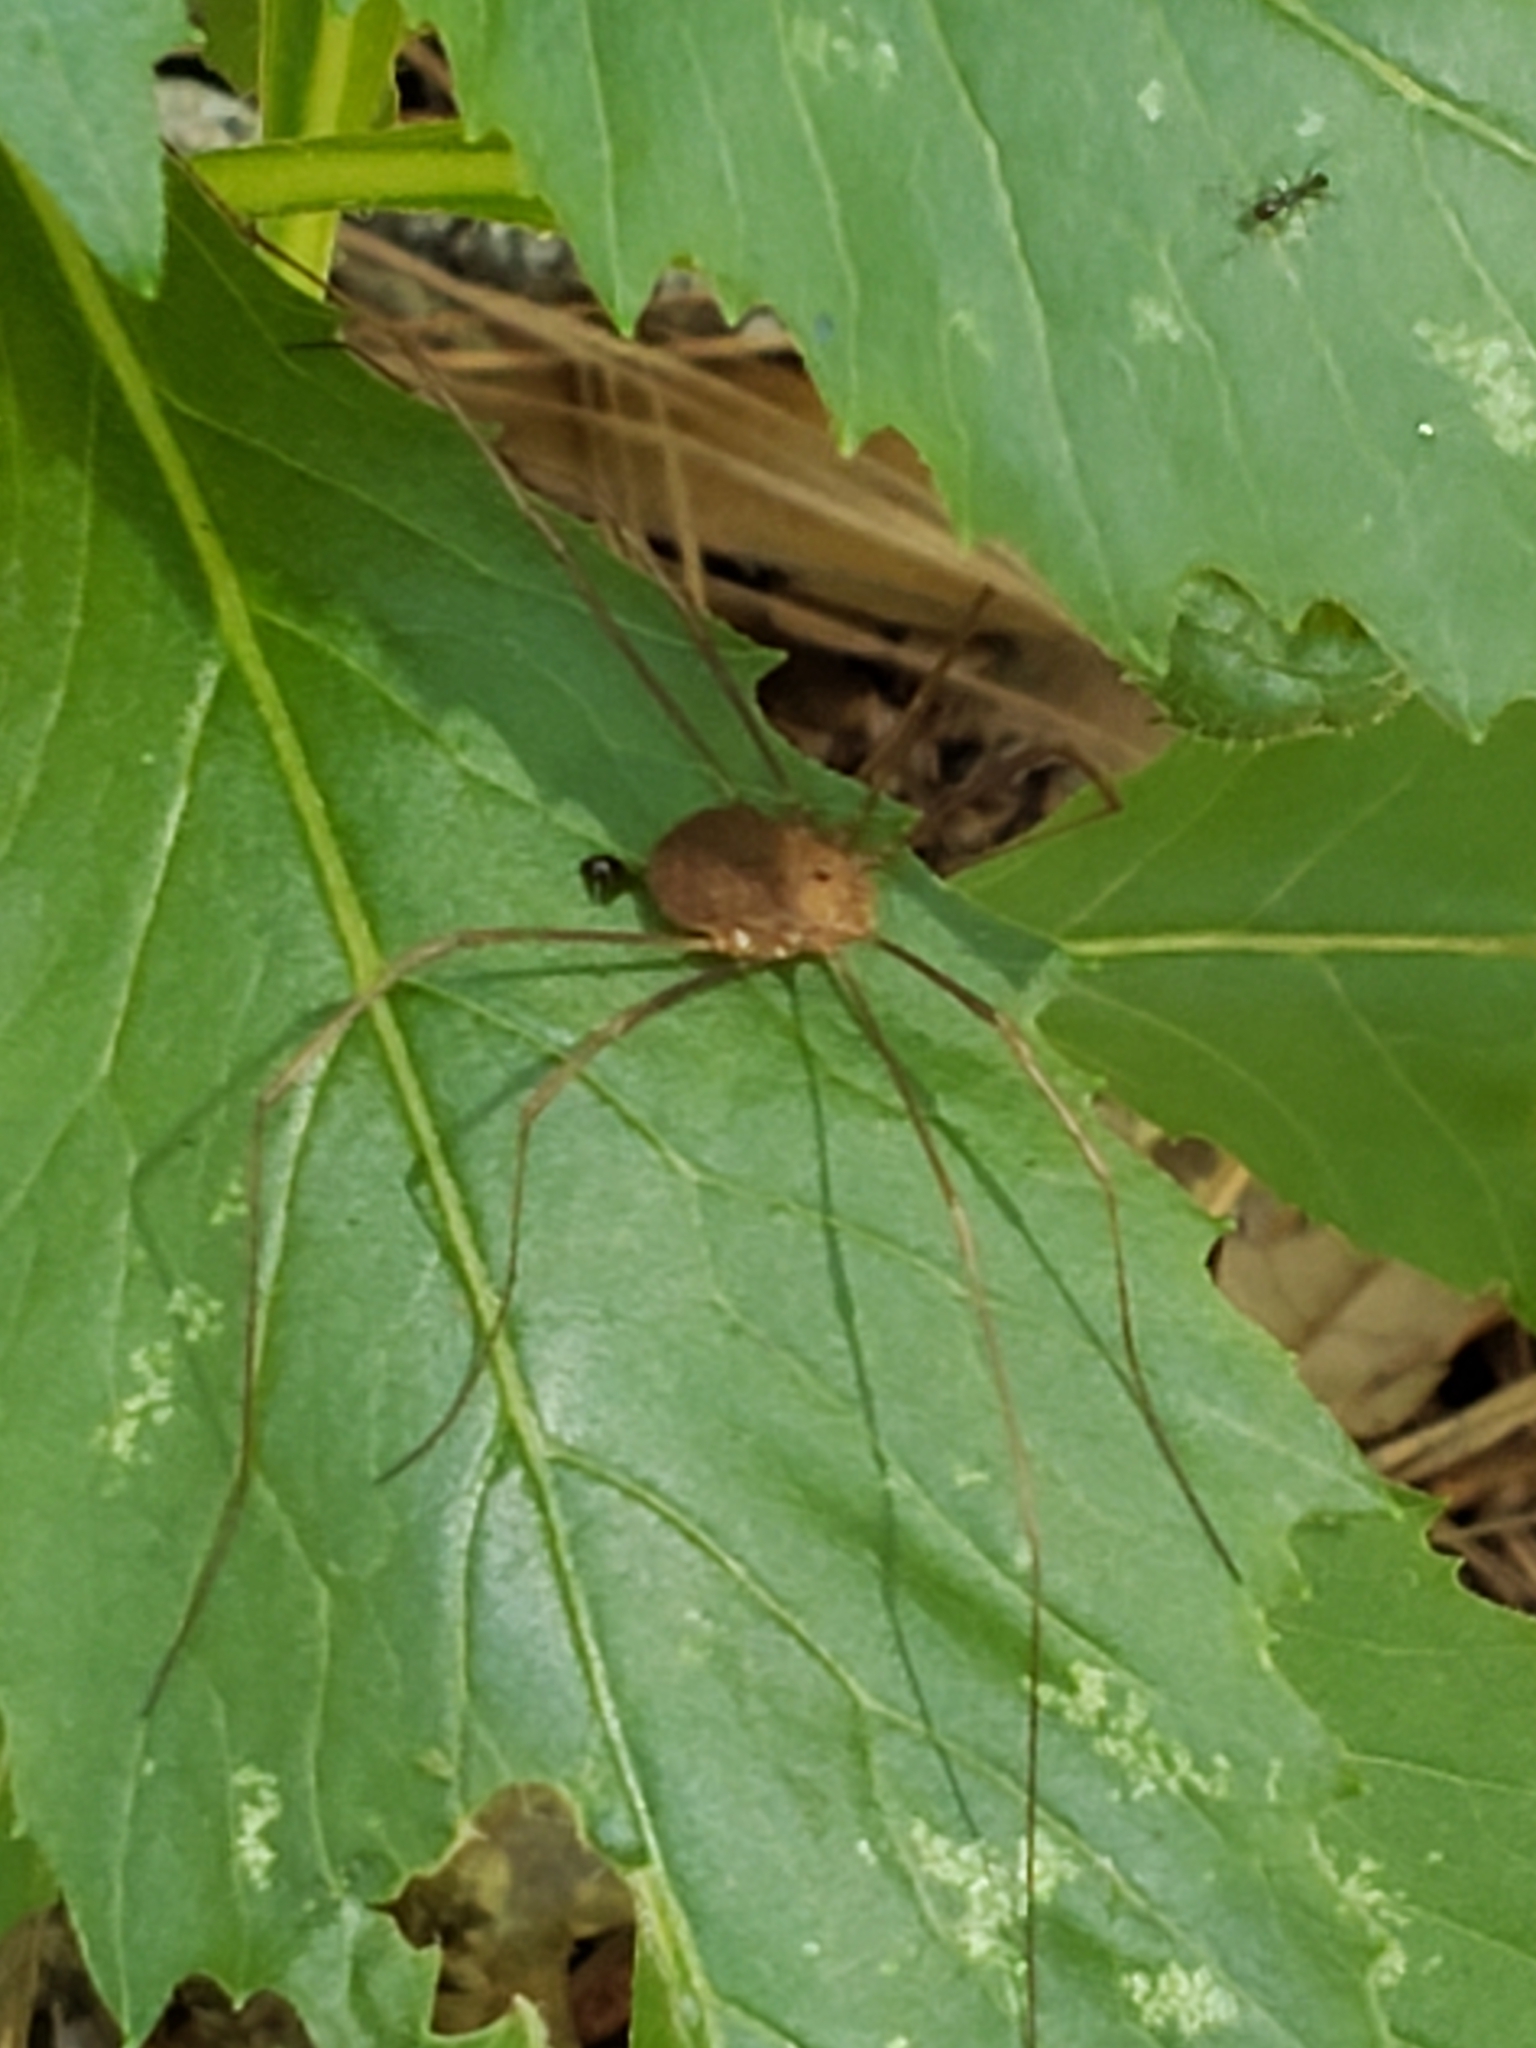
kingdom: Animalia
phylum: Arthropoda
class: Arachnida
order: Opiliones
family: Sclerosomatidae
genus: Hadrobunus
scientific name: Hadrobunus grandis
